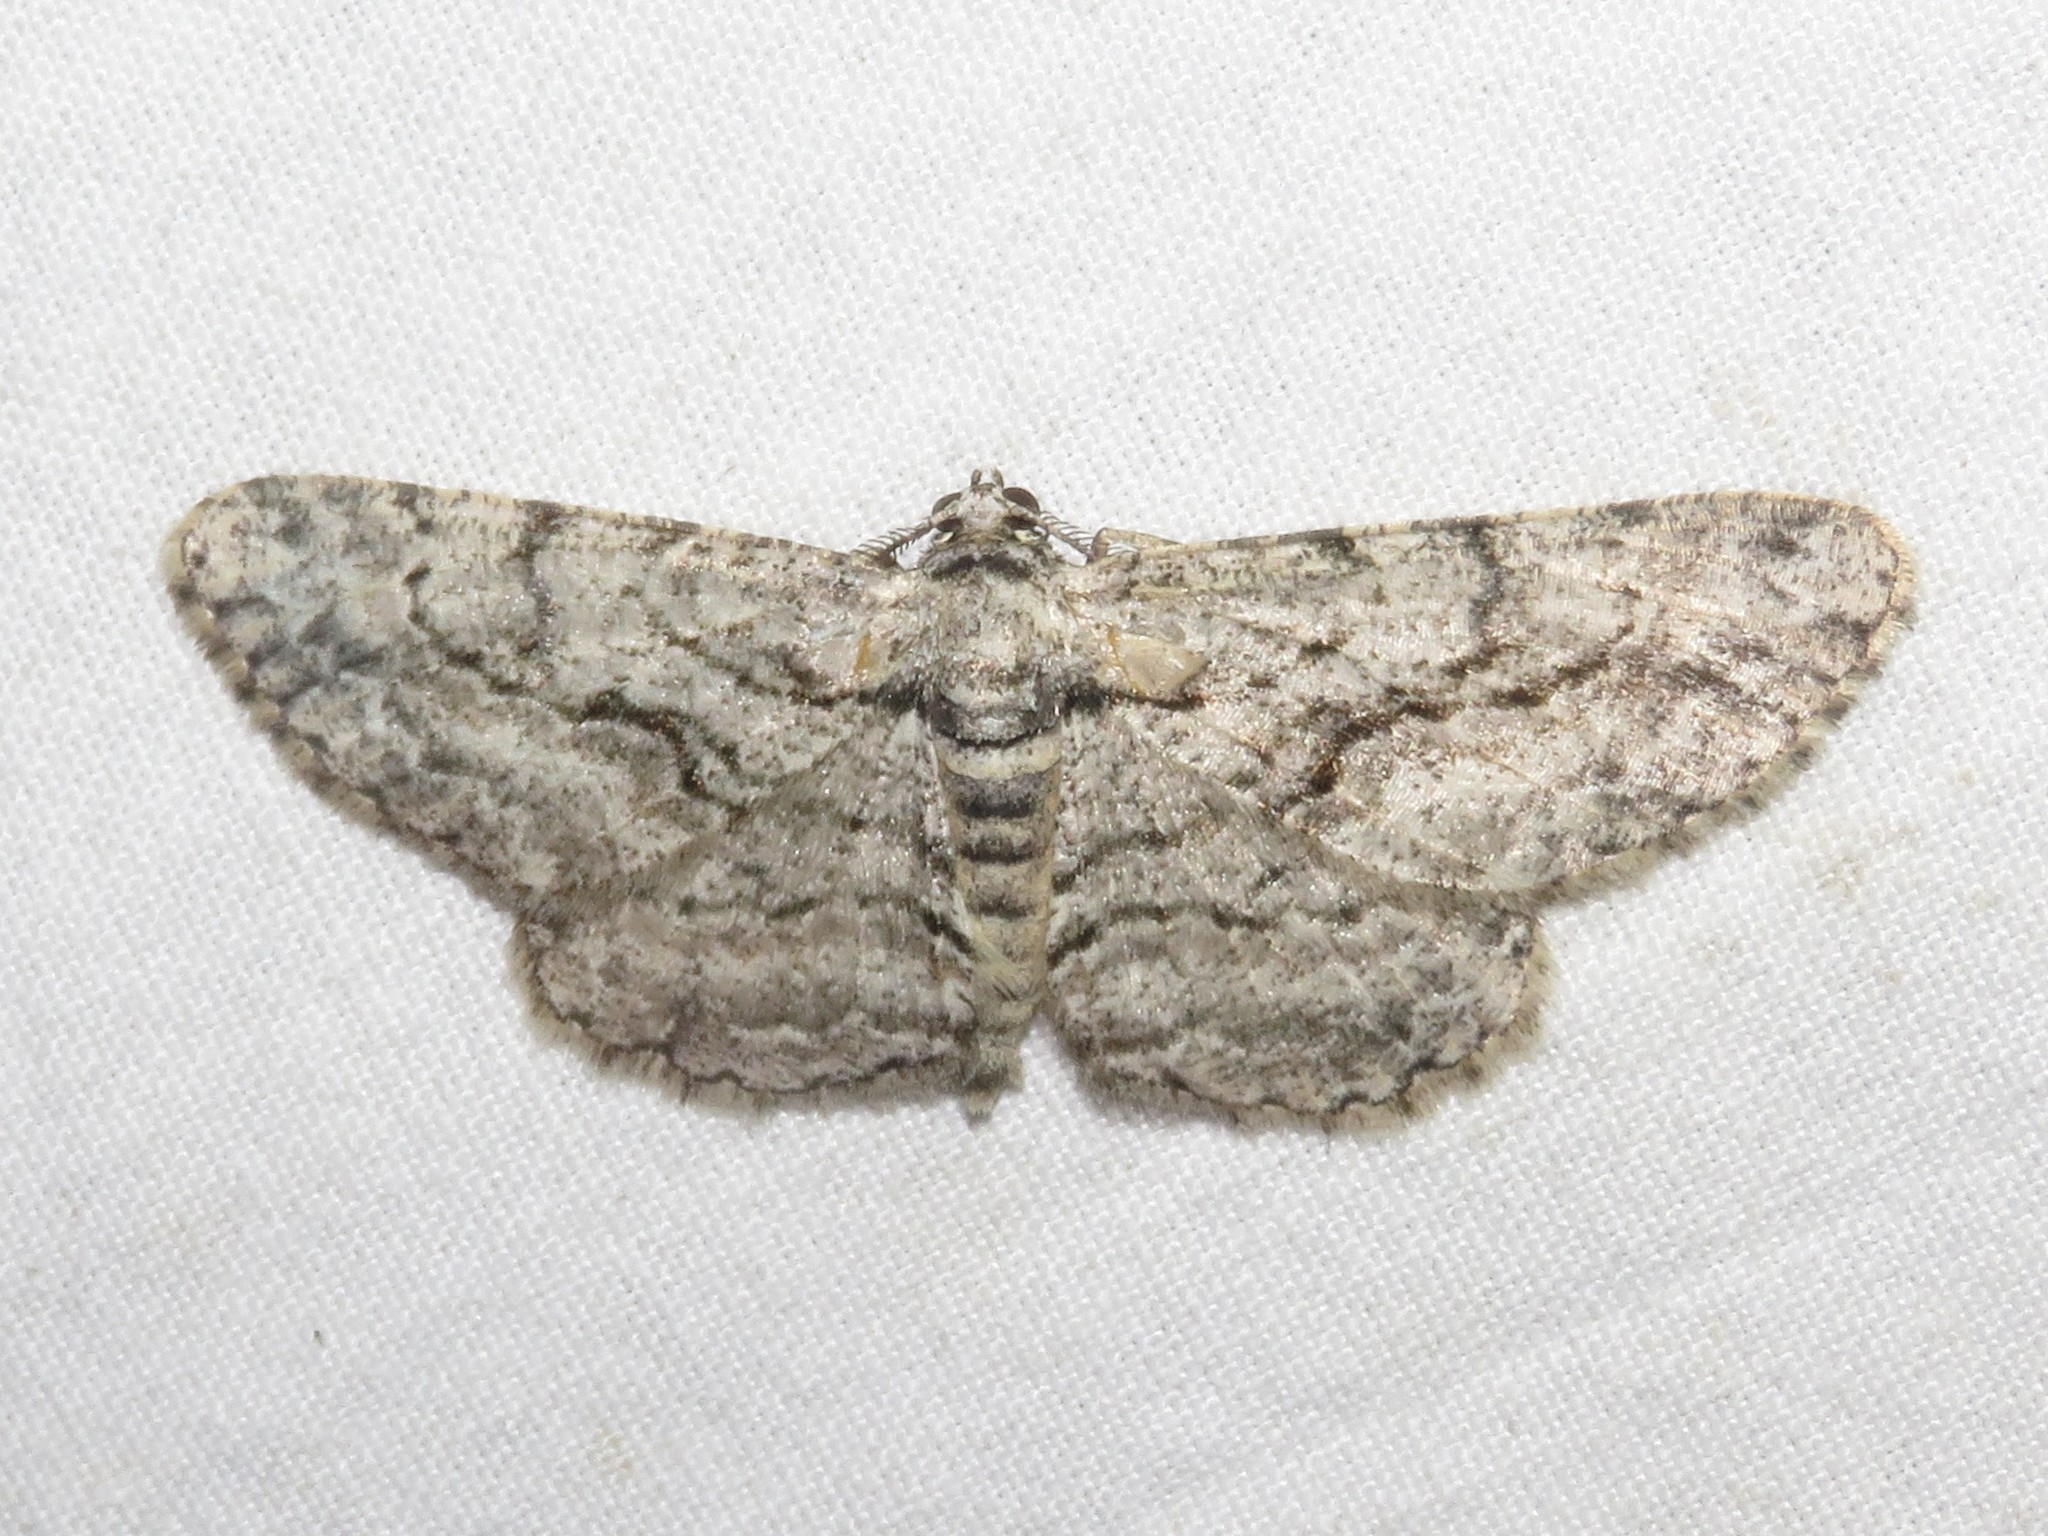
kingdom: Animalia
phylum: Arthropoda
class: Insecta
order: Lepidoptera
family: Geometridae
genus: Anavitrinella
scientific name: Anavitrinella pampinaria
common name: Common gray
